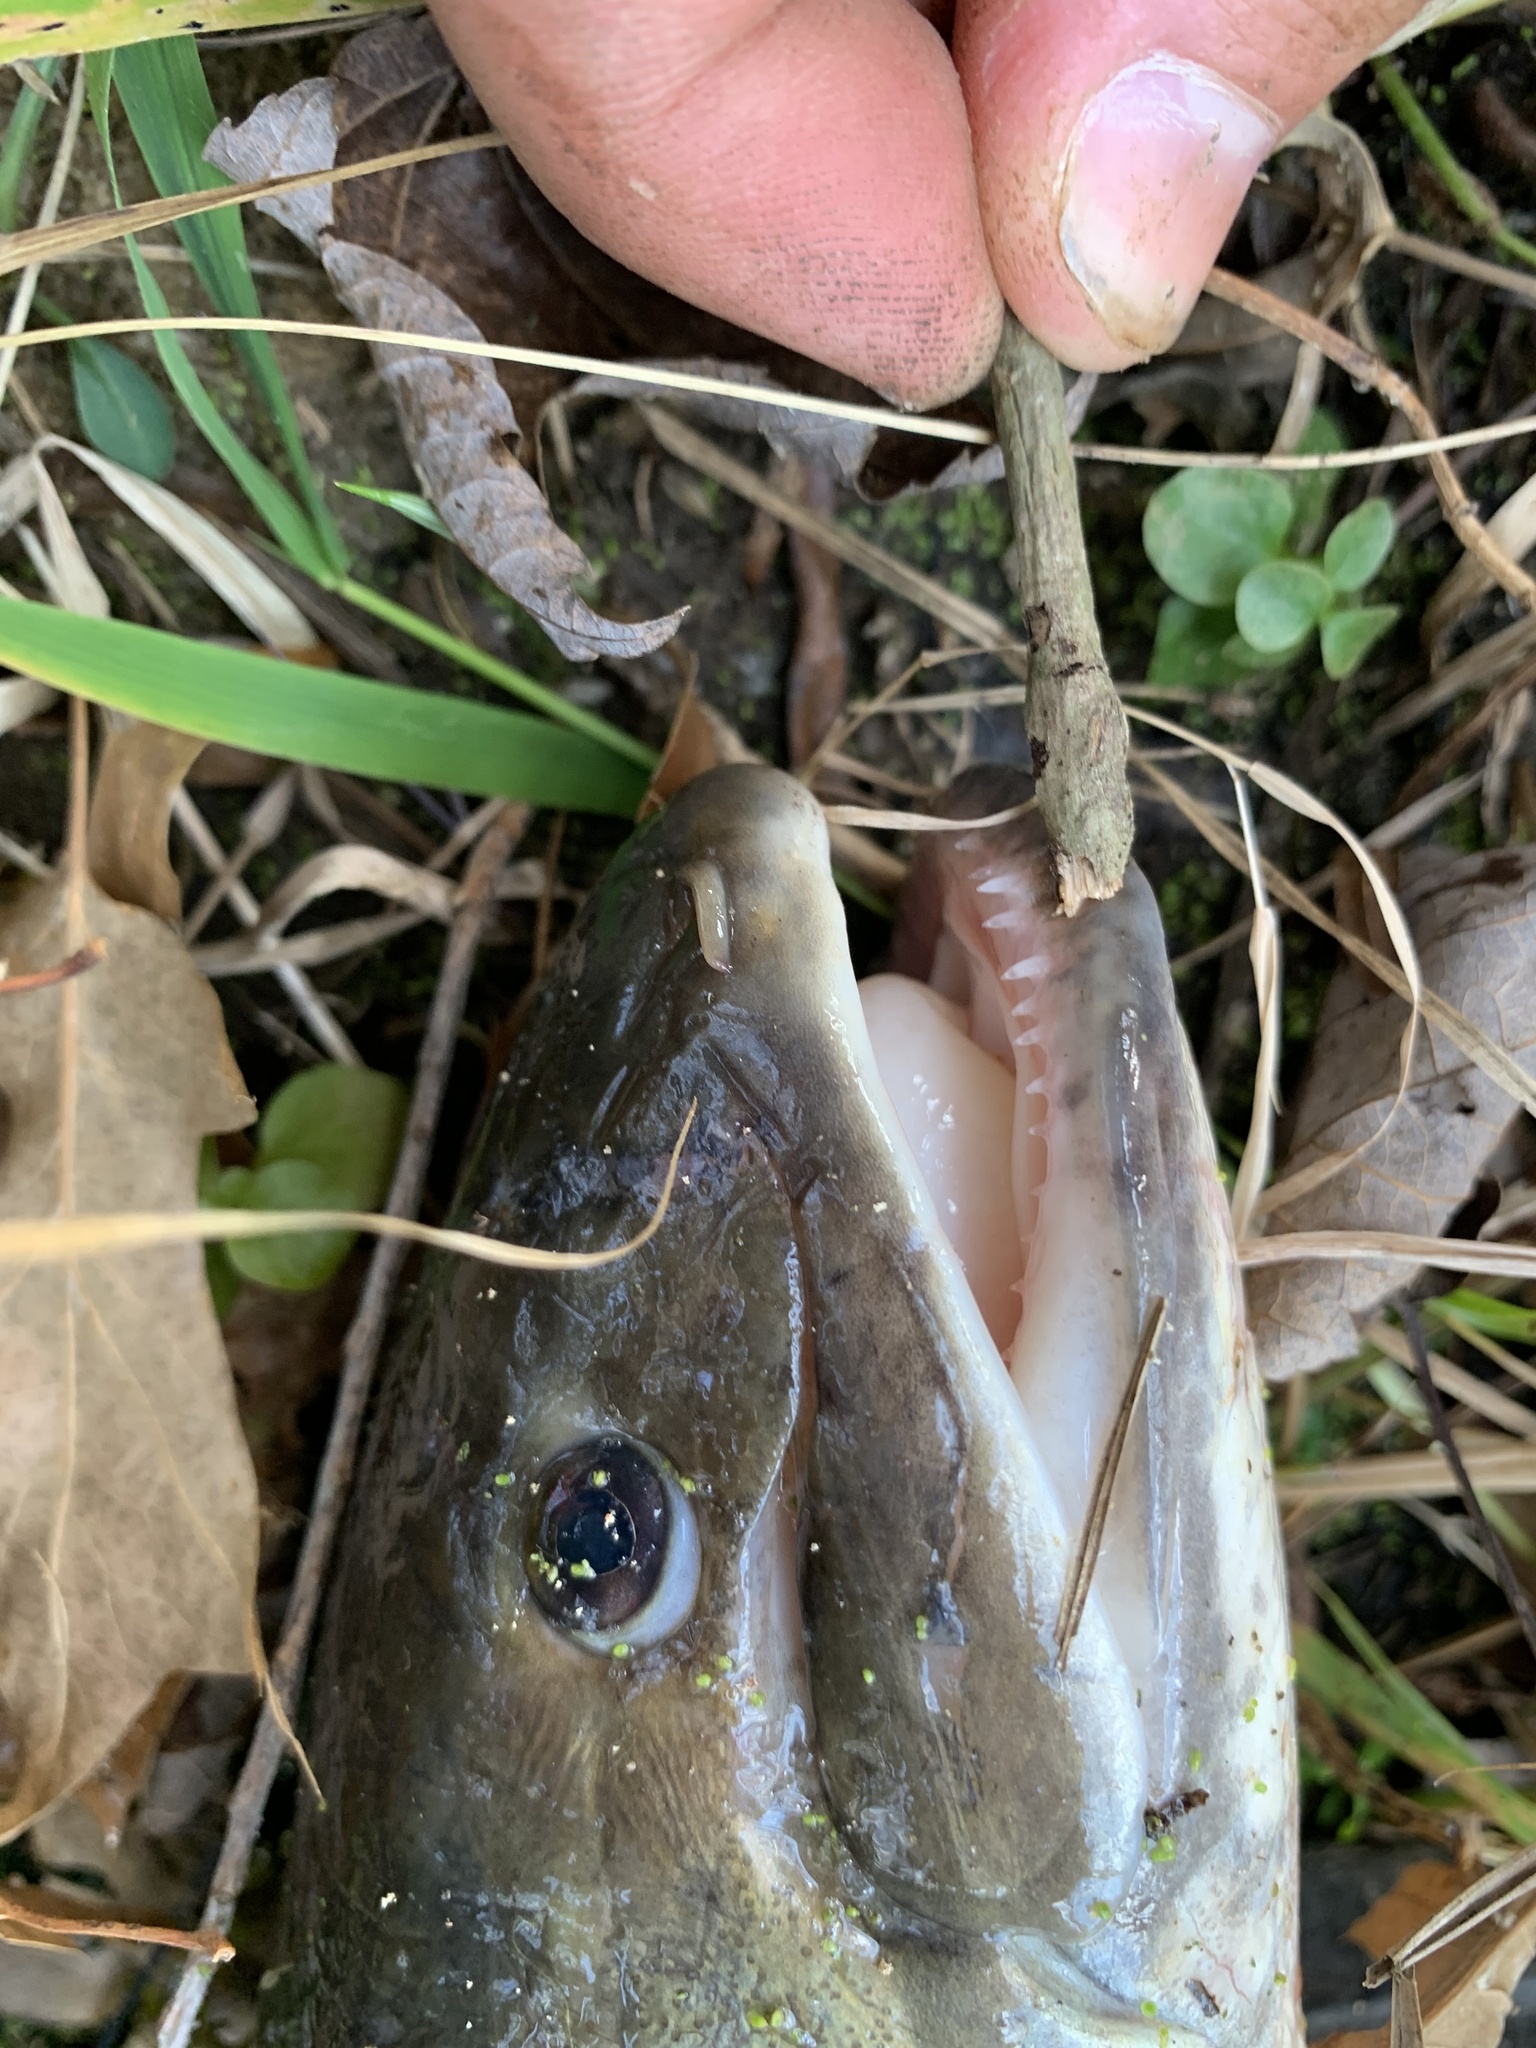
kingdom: Animalia
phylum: Chordata
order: Amiiformes
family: Amiidae
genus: Amia
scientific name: Amia calva
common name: Bowfin
